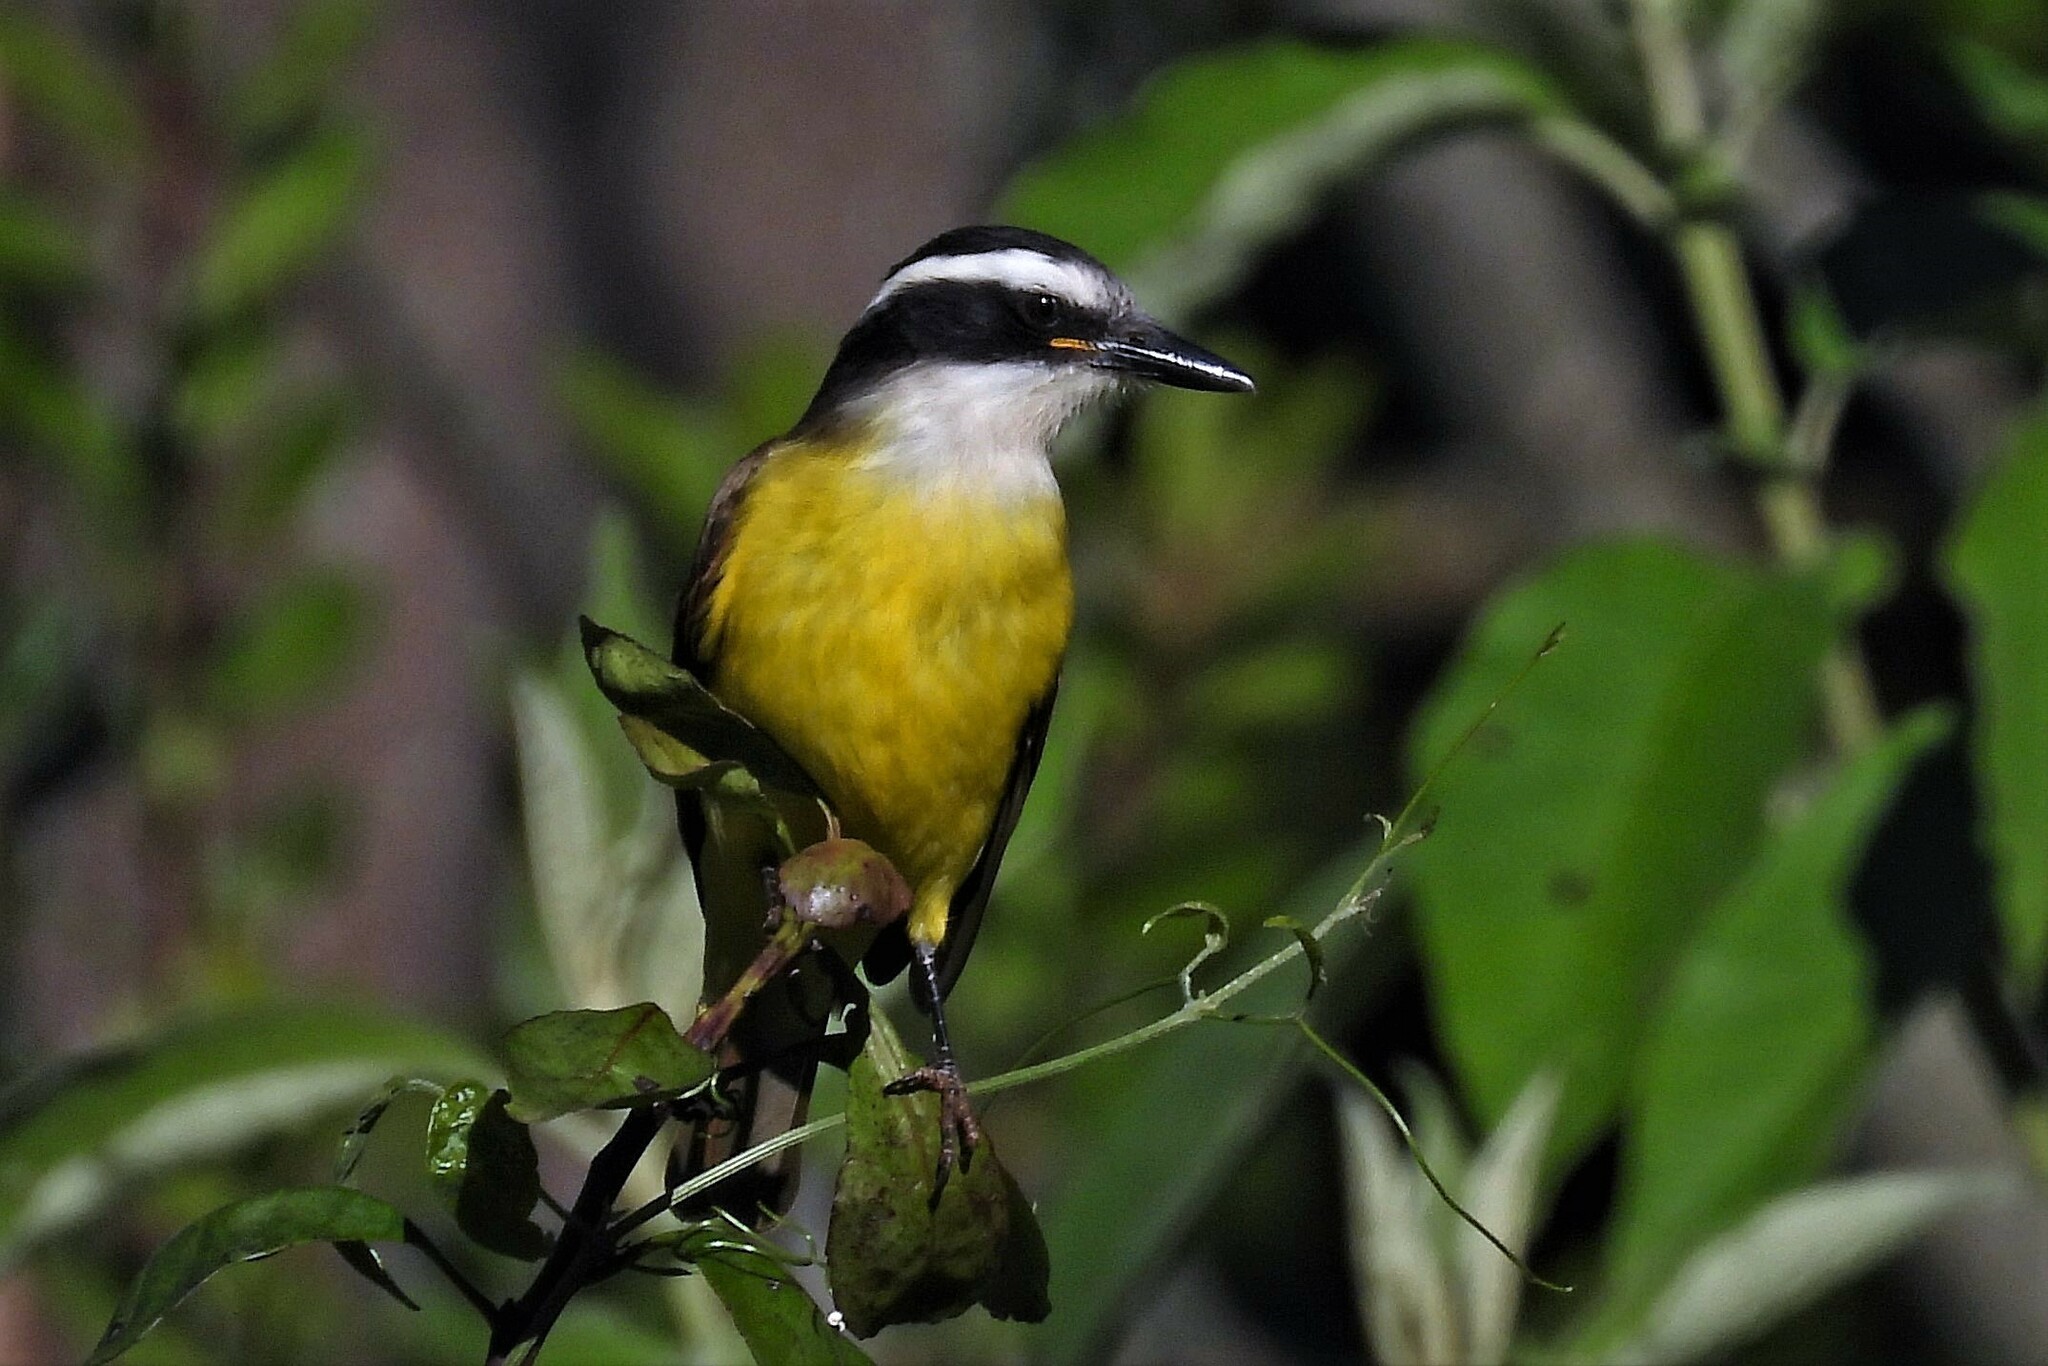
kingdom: Animalia
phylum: Chordata
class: Aves
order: Passeriformes
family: Tyrannidae
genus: Pitangus
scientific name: Pitangus sulphuratus
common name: Great kiskadee
